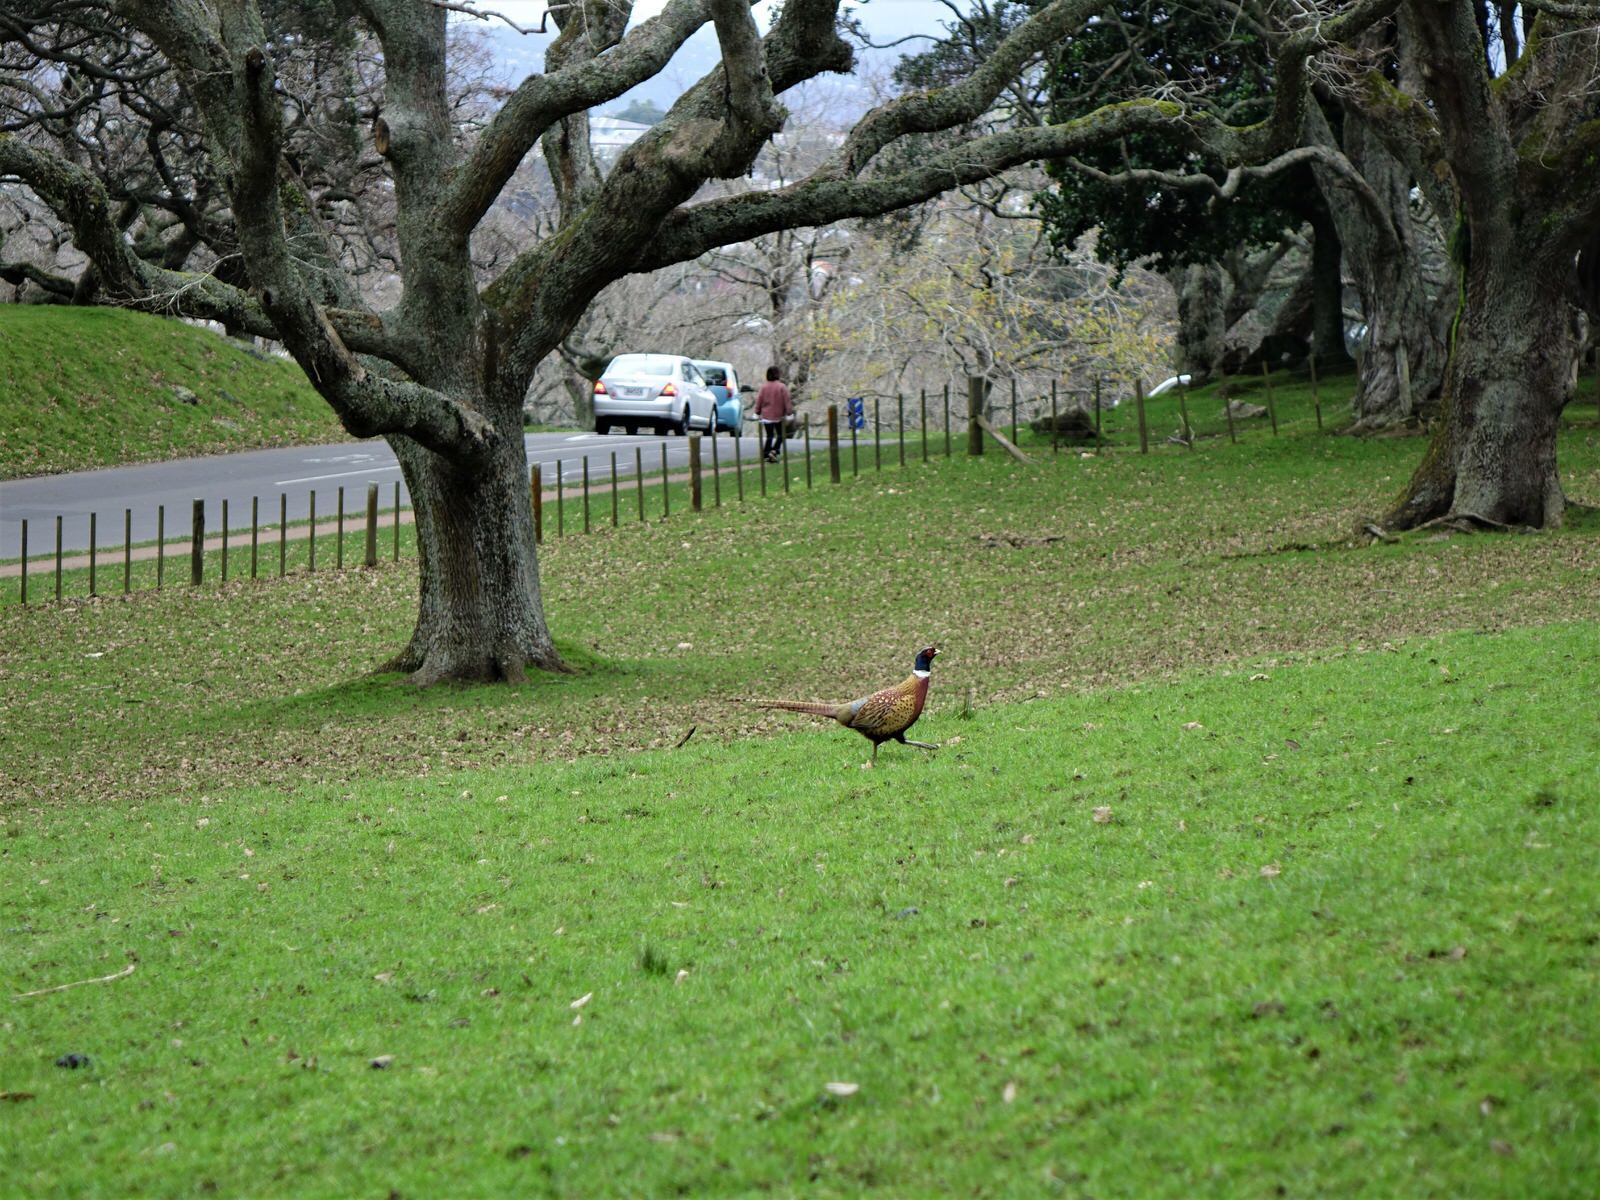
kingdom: Animalia
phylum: Chordata
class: Aves
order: Galliformes
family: Phasianidae
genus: Phasianus
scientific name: Phasianus colchicus
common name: Common pheasant
